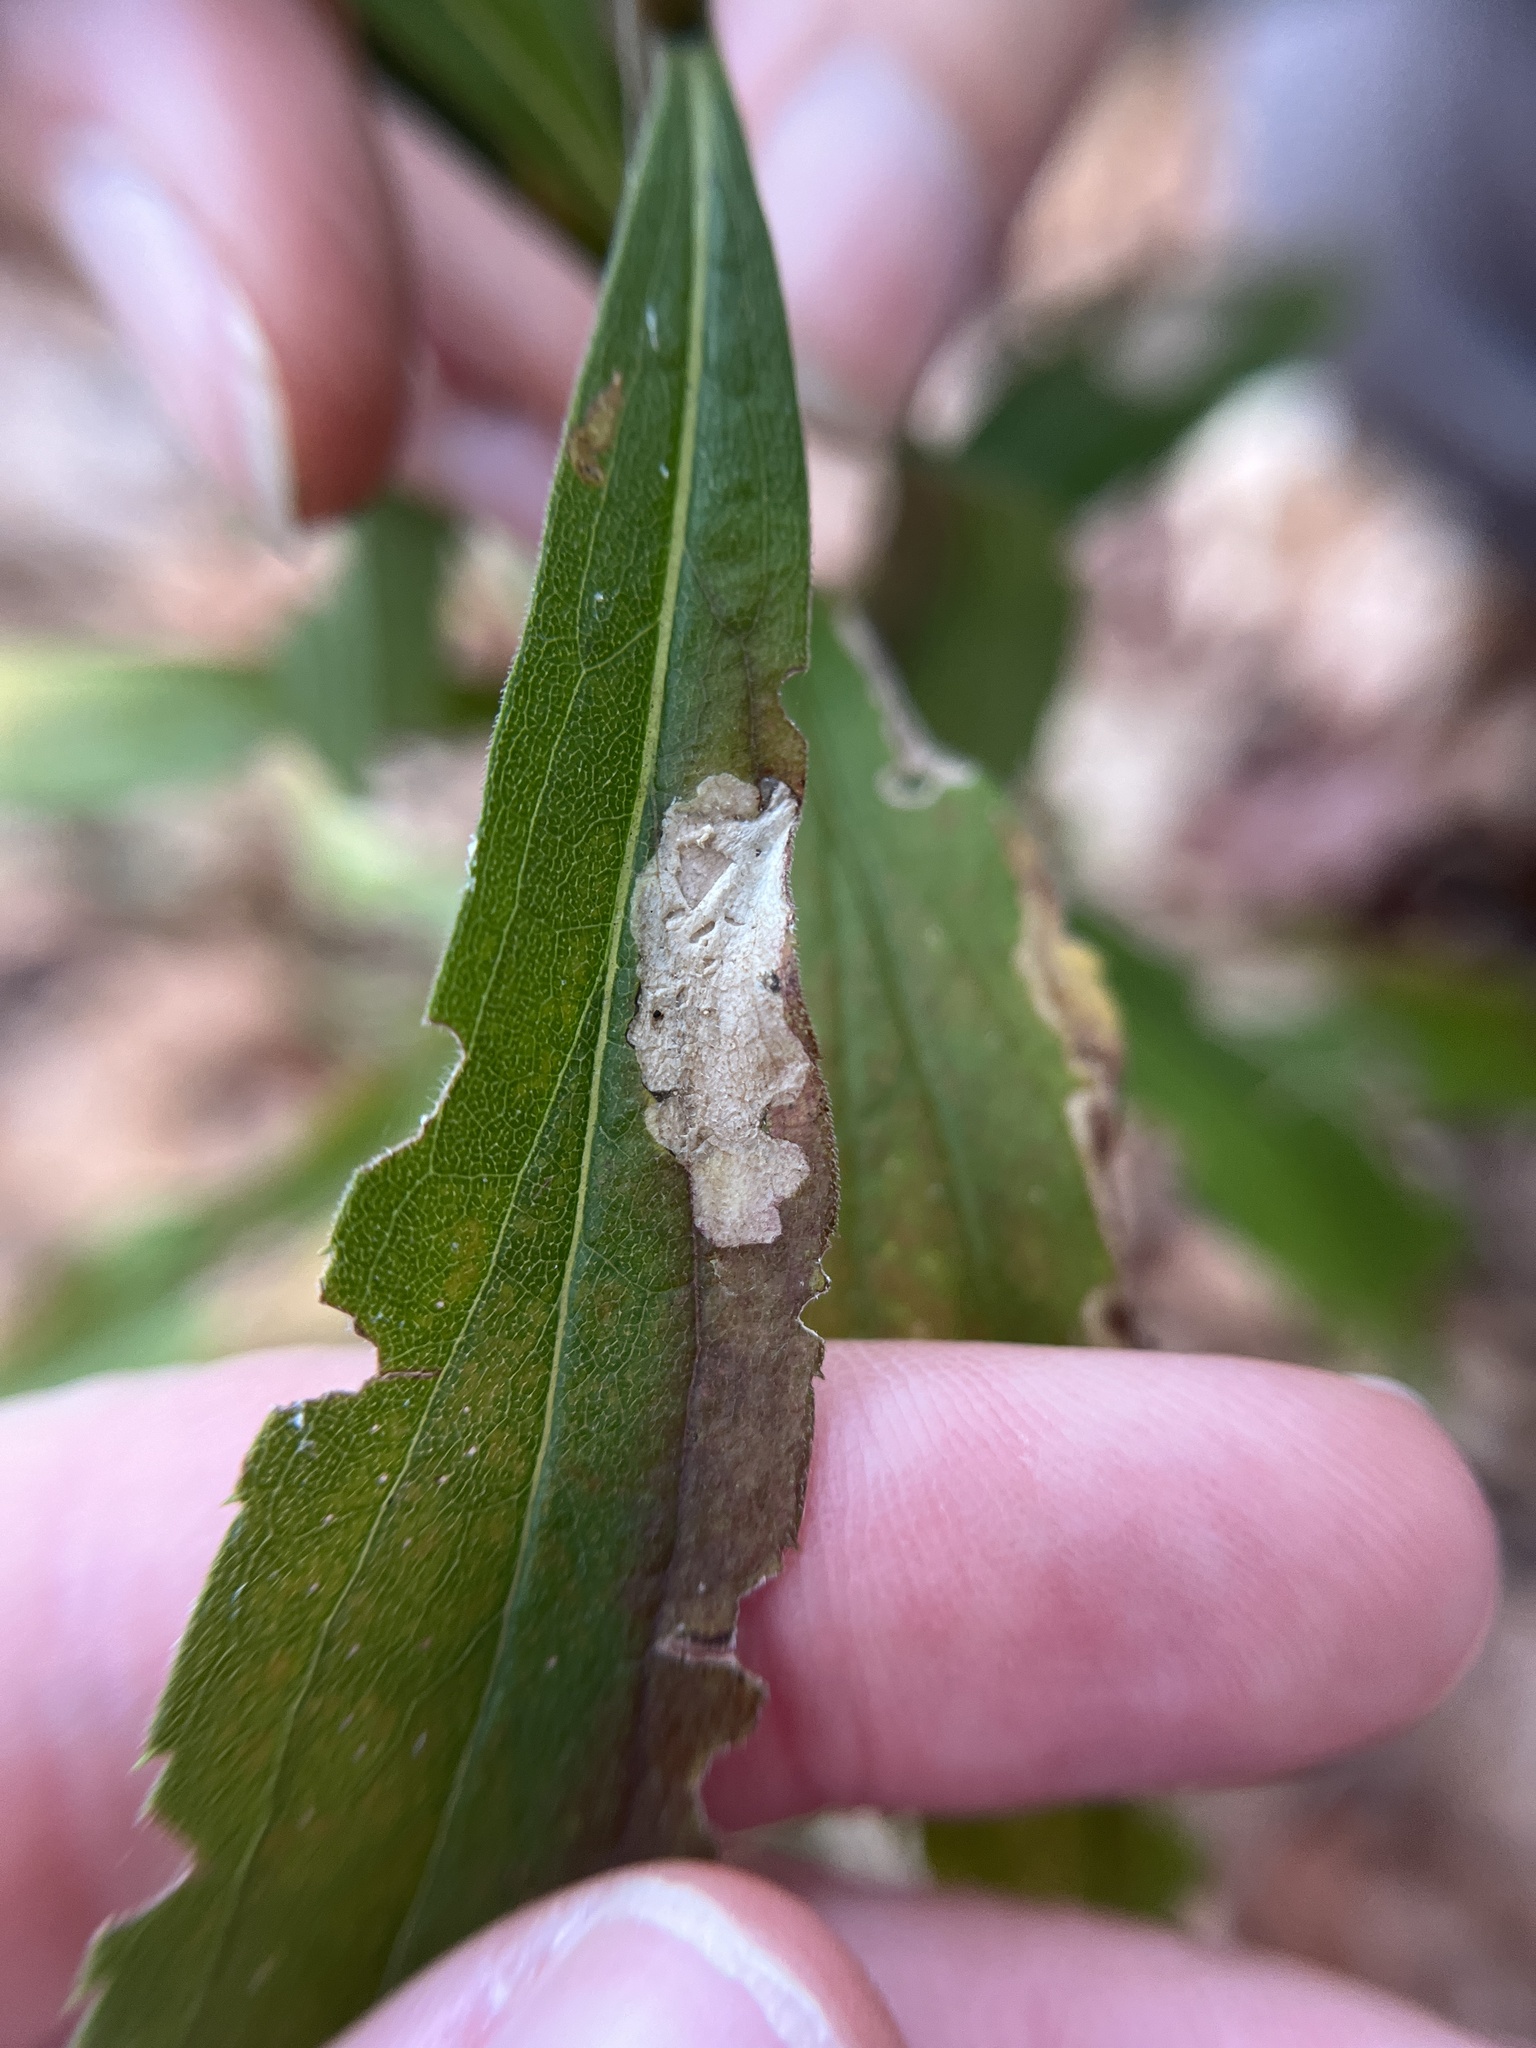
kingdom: Animalia
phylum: Arthropoda
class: Insecta
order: Lepidoptera
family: Tischeriidae
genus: Astrotischeria
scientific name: Astrotischeria solidagonifoliella
